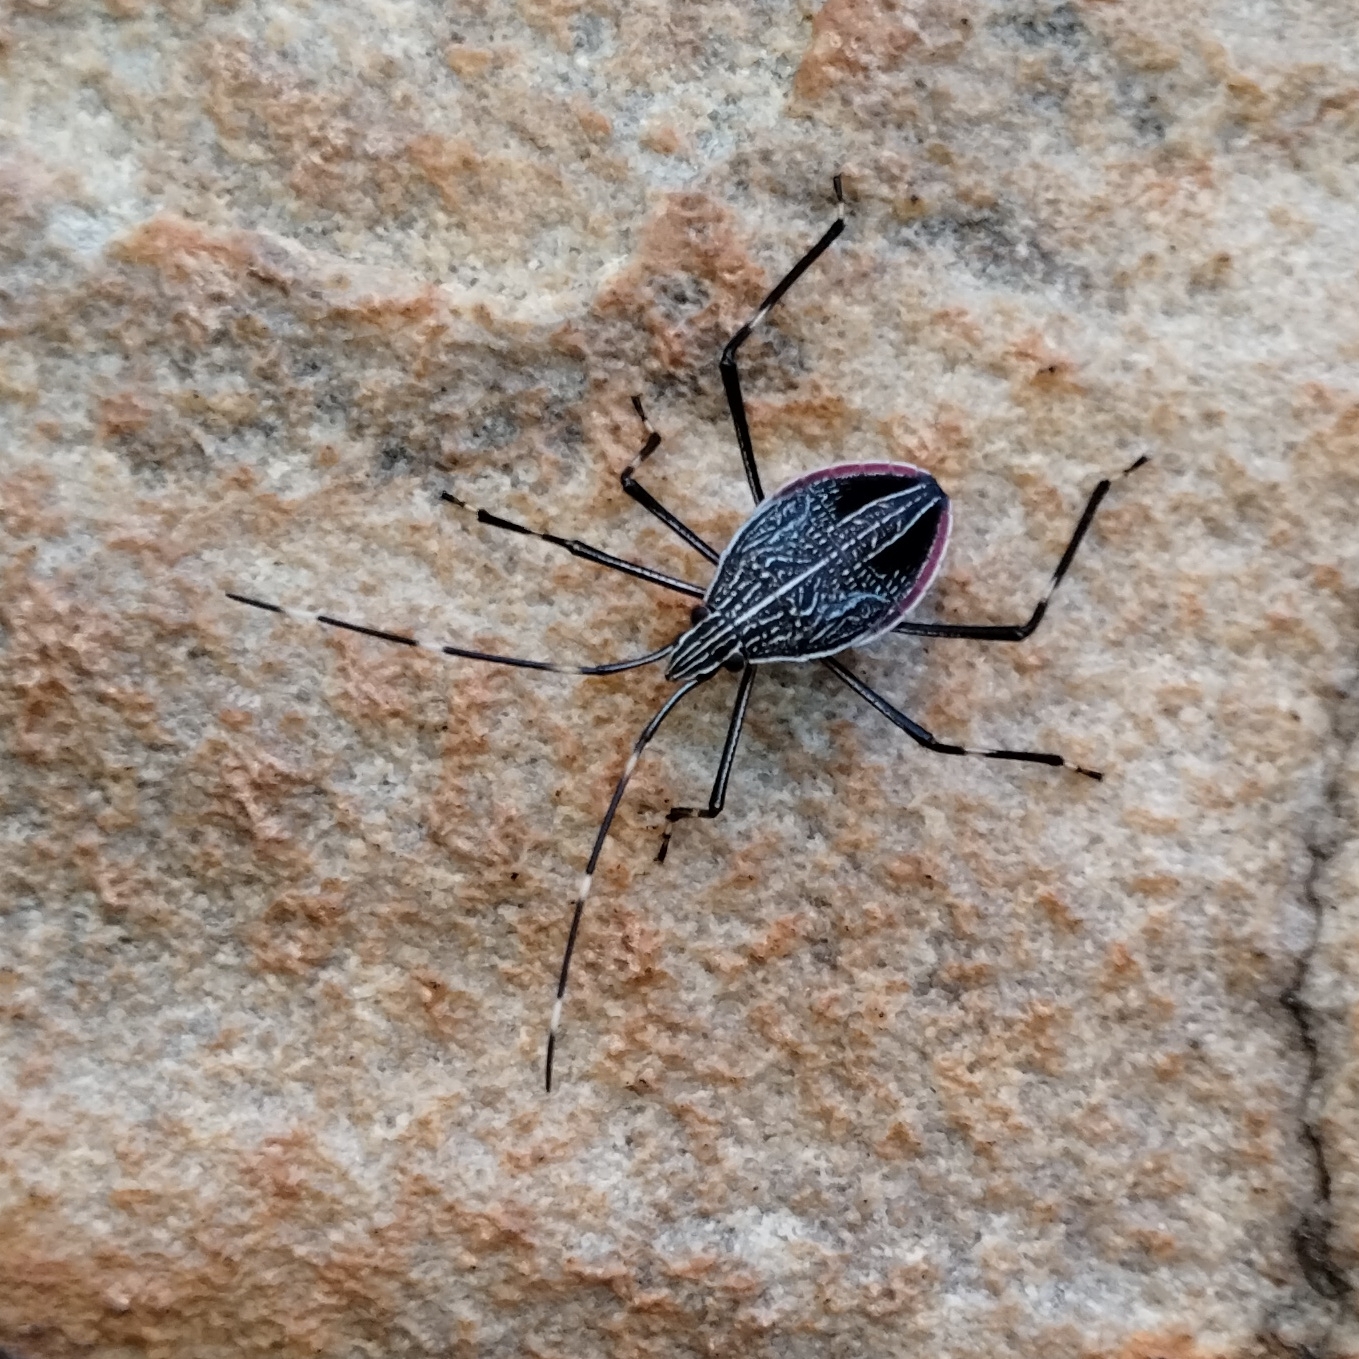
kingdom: Animalia
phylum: Arthropoda
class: Insecta
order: Hemiptera
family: Pentatomidae
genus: Poecilometis
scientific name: Poecilometis
